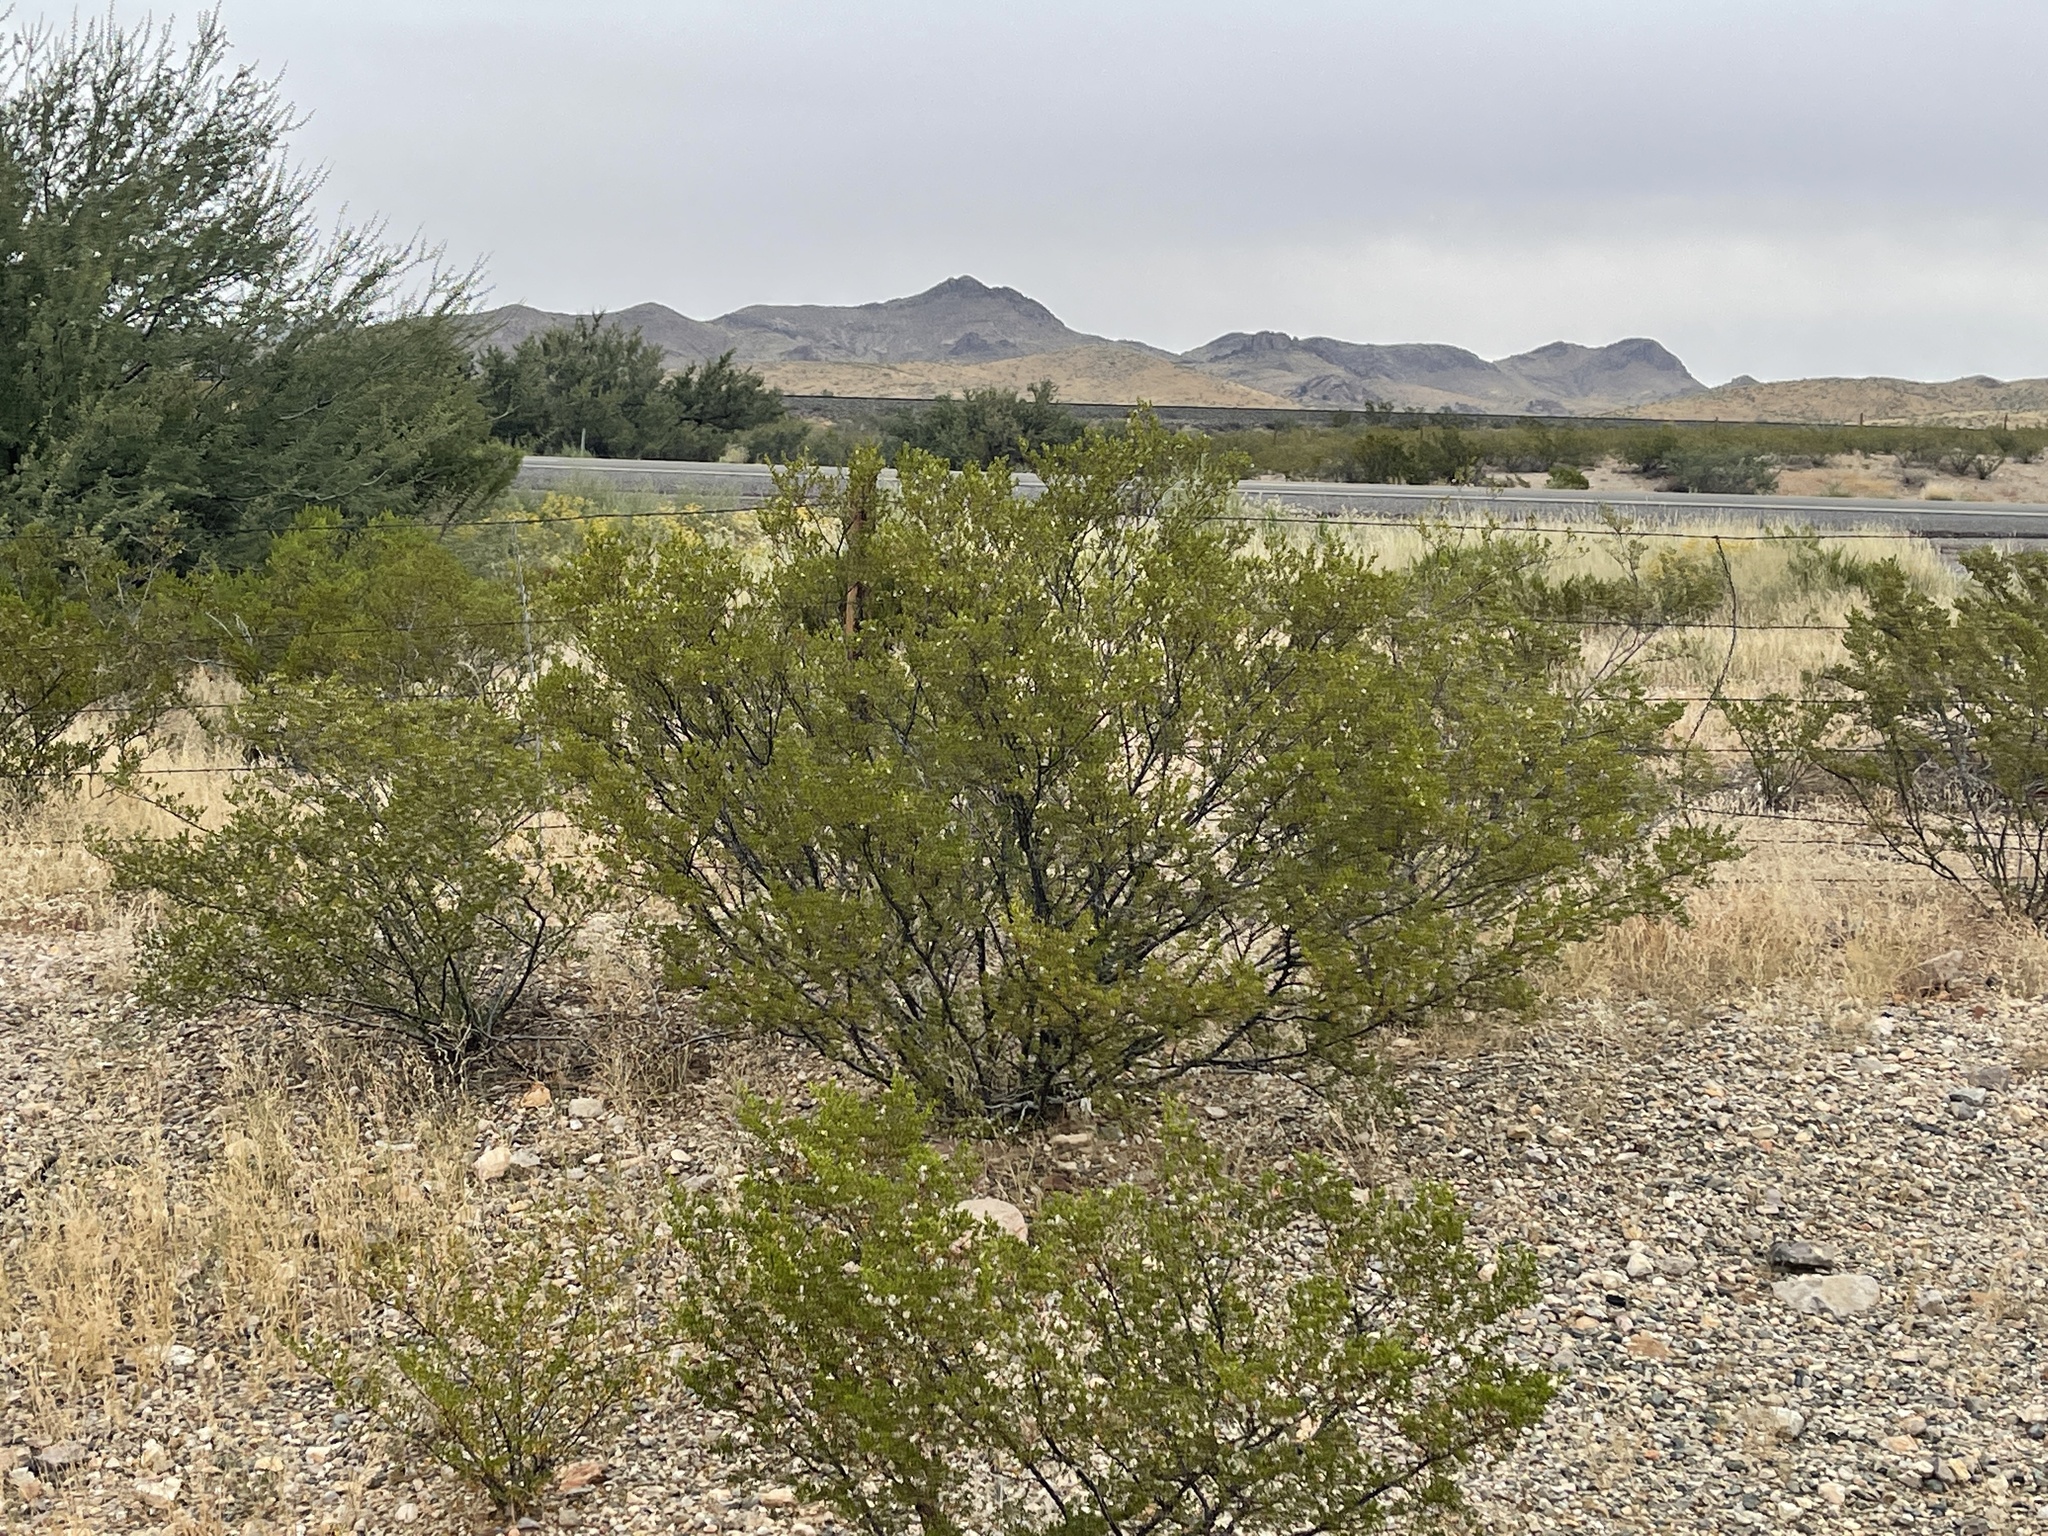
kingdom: Plantae
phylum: Tracheophyta
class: Magnoliopsida
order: Zygophyllales
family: Zygophyllaceae
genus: Larrea
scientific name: Larrea tridentata
